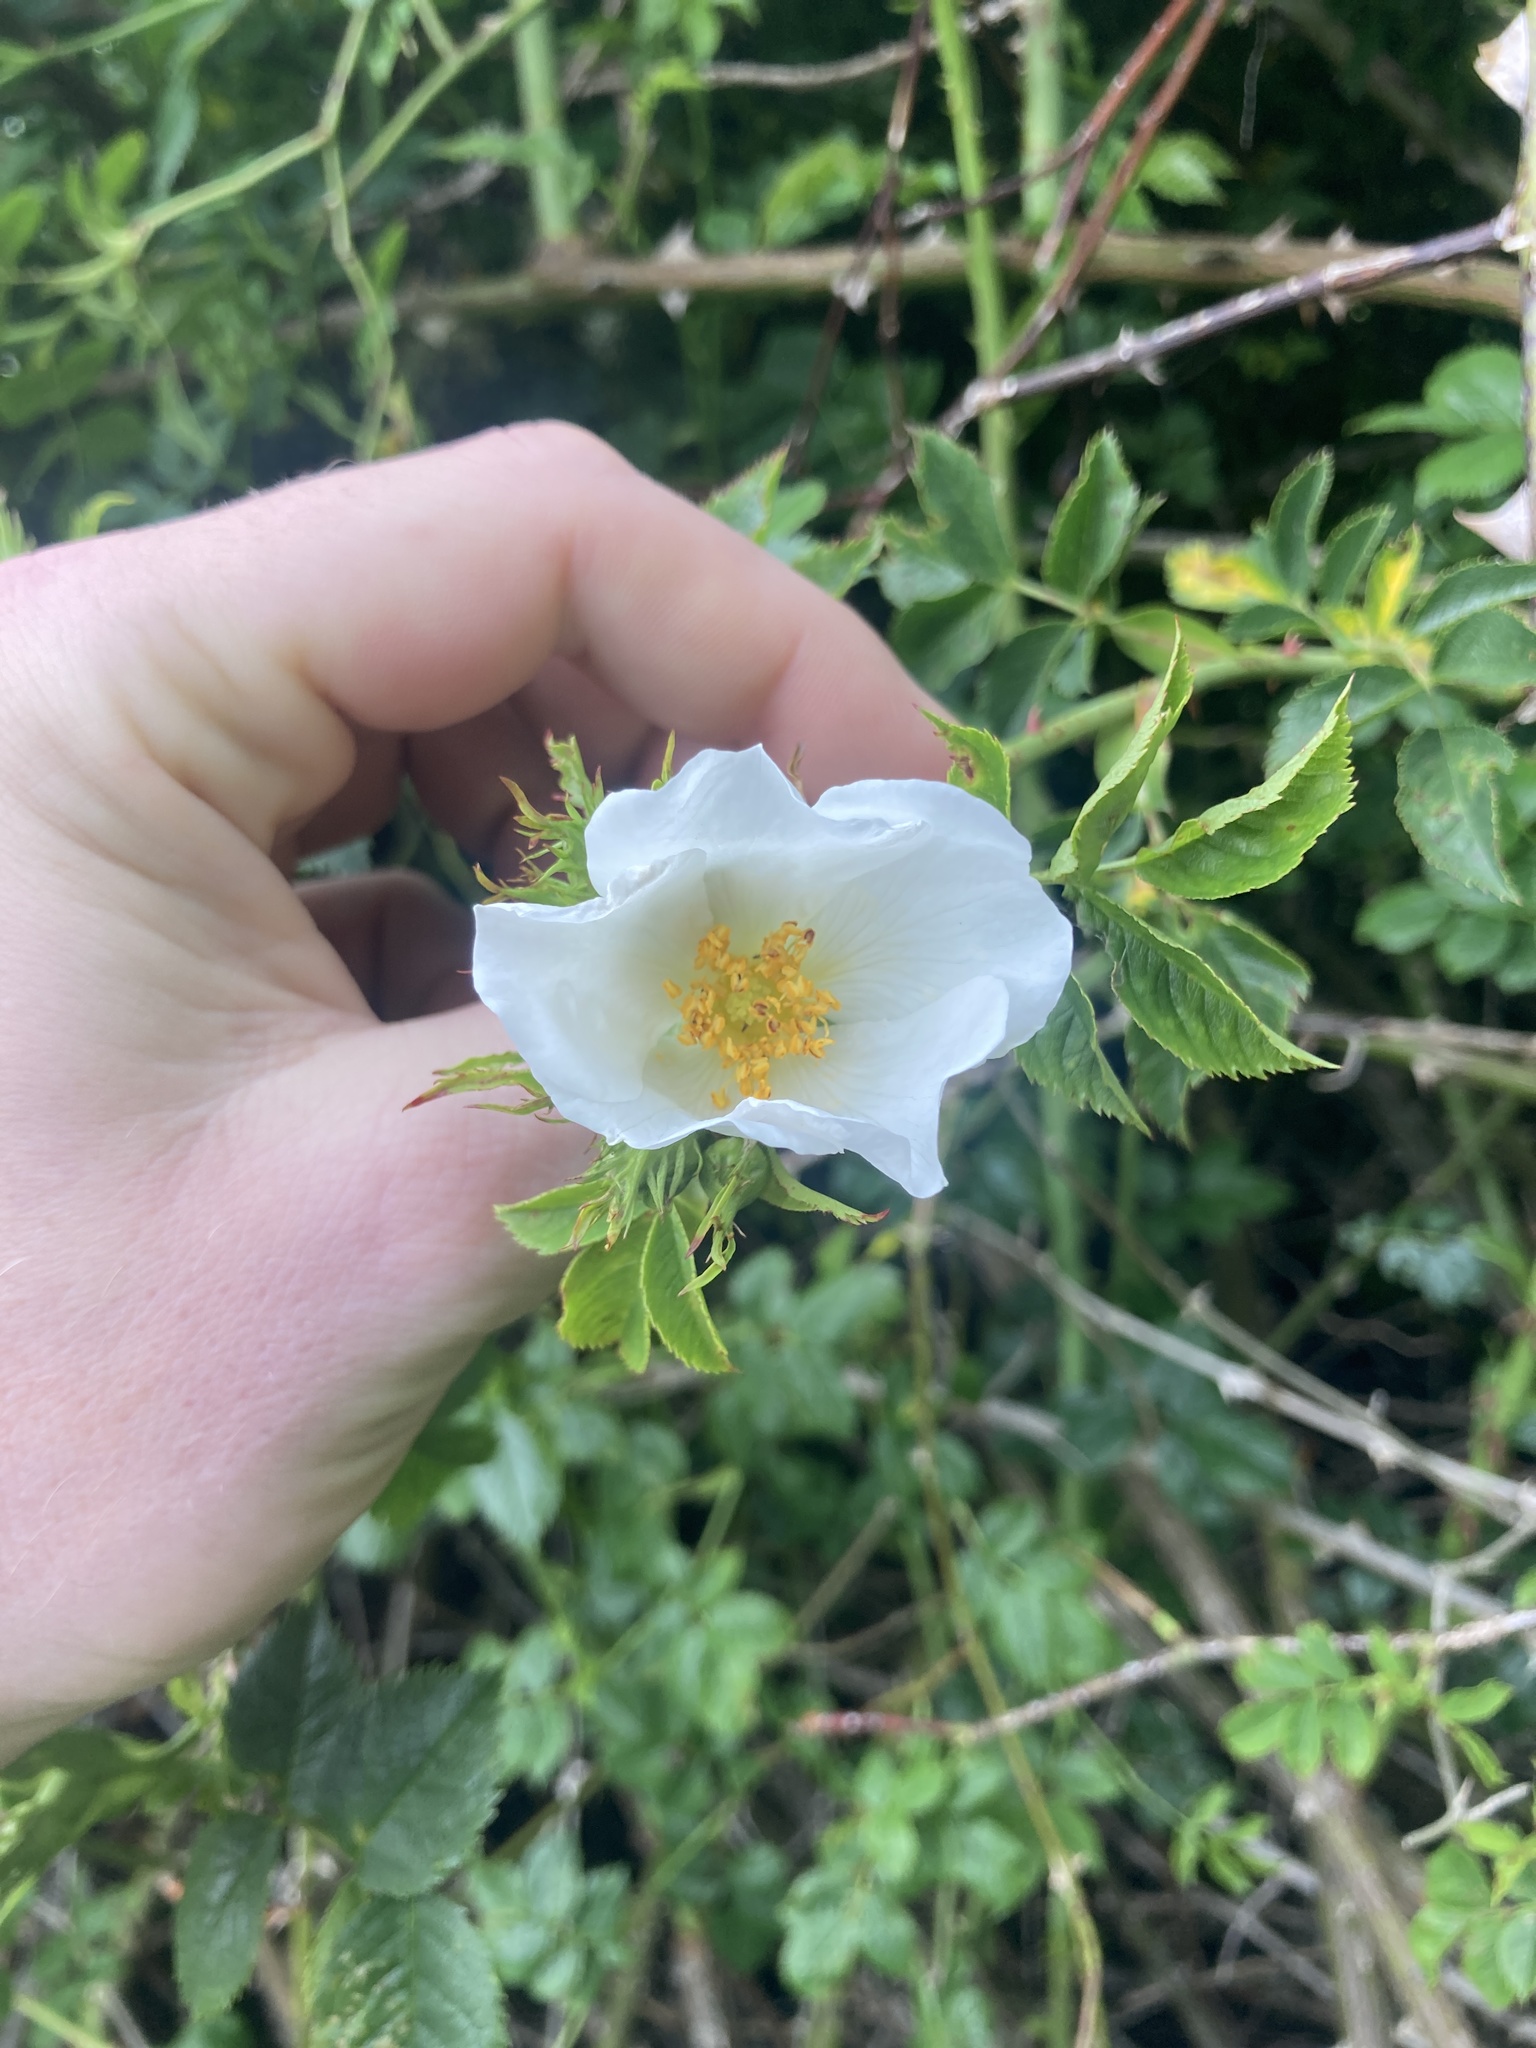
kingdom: Plantae
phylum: Tracheophyta
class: Magnoliopsida
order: Rosales
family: Rosaceae
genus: Rosa
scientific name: Rosa canina
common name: Dog rose
